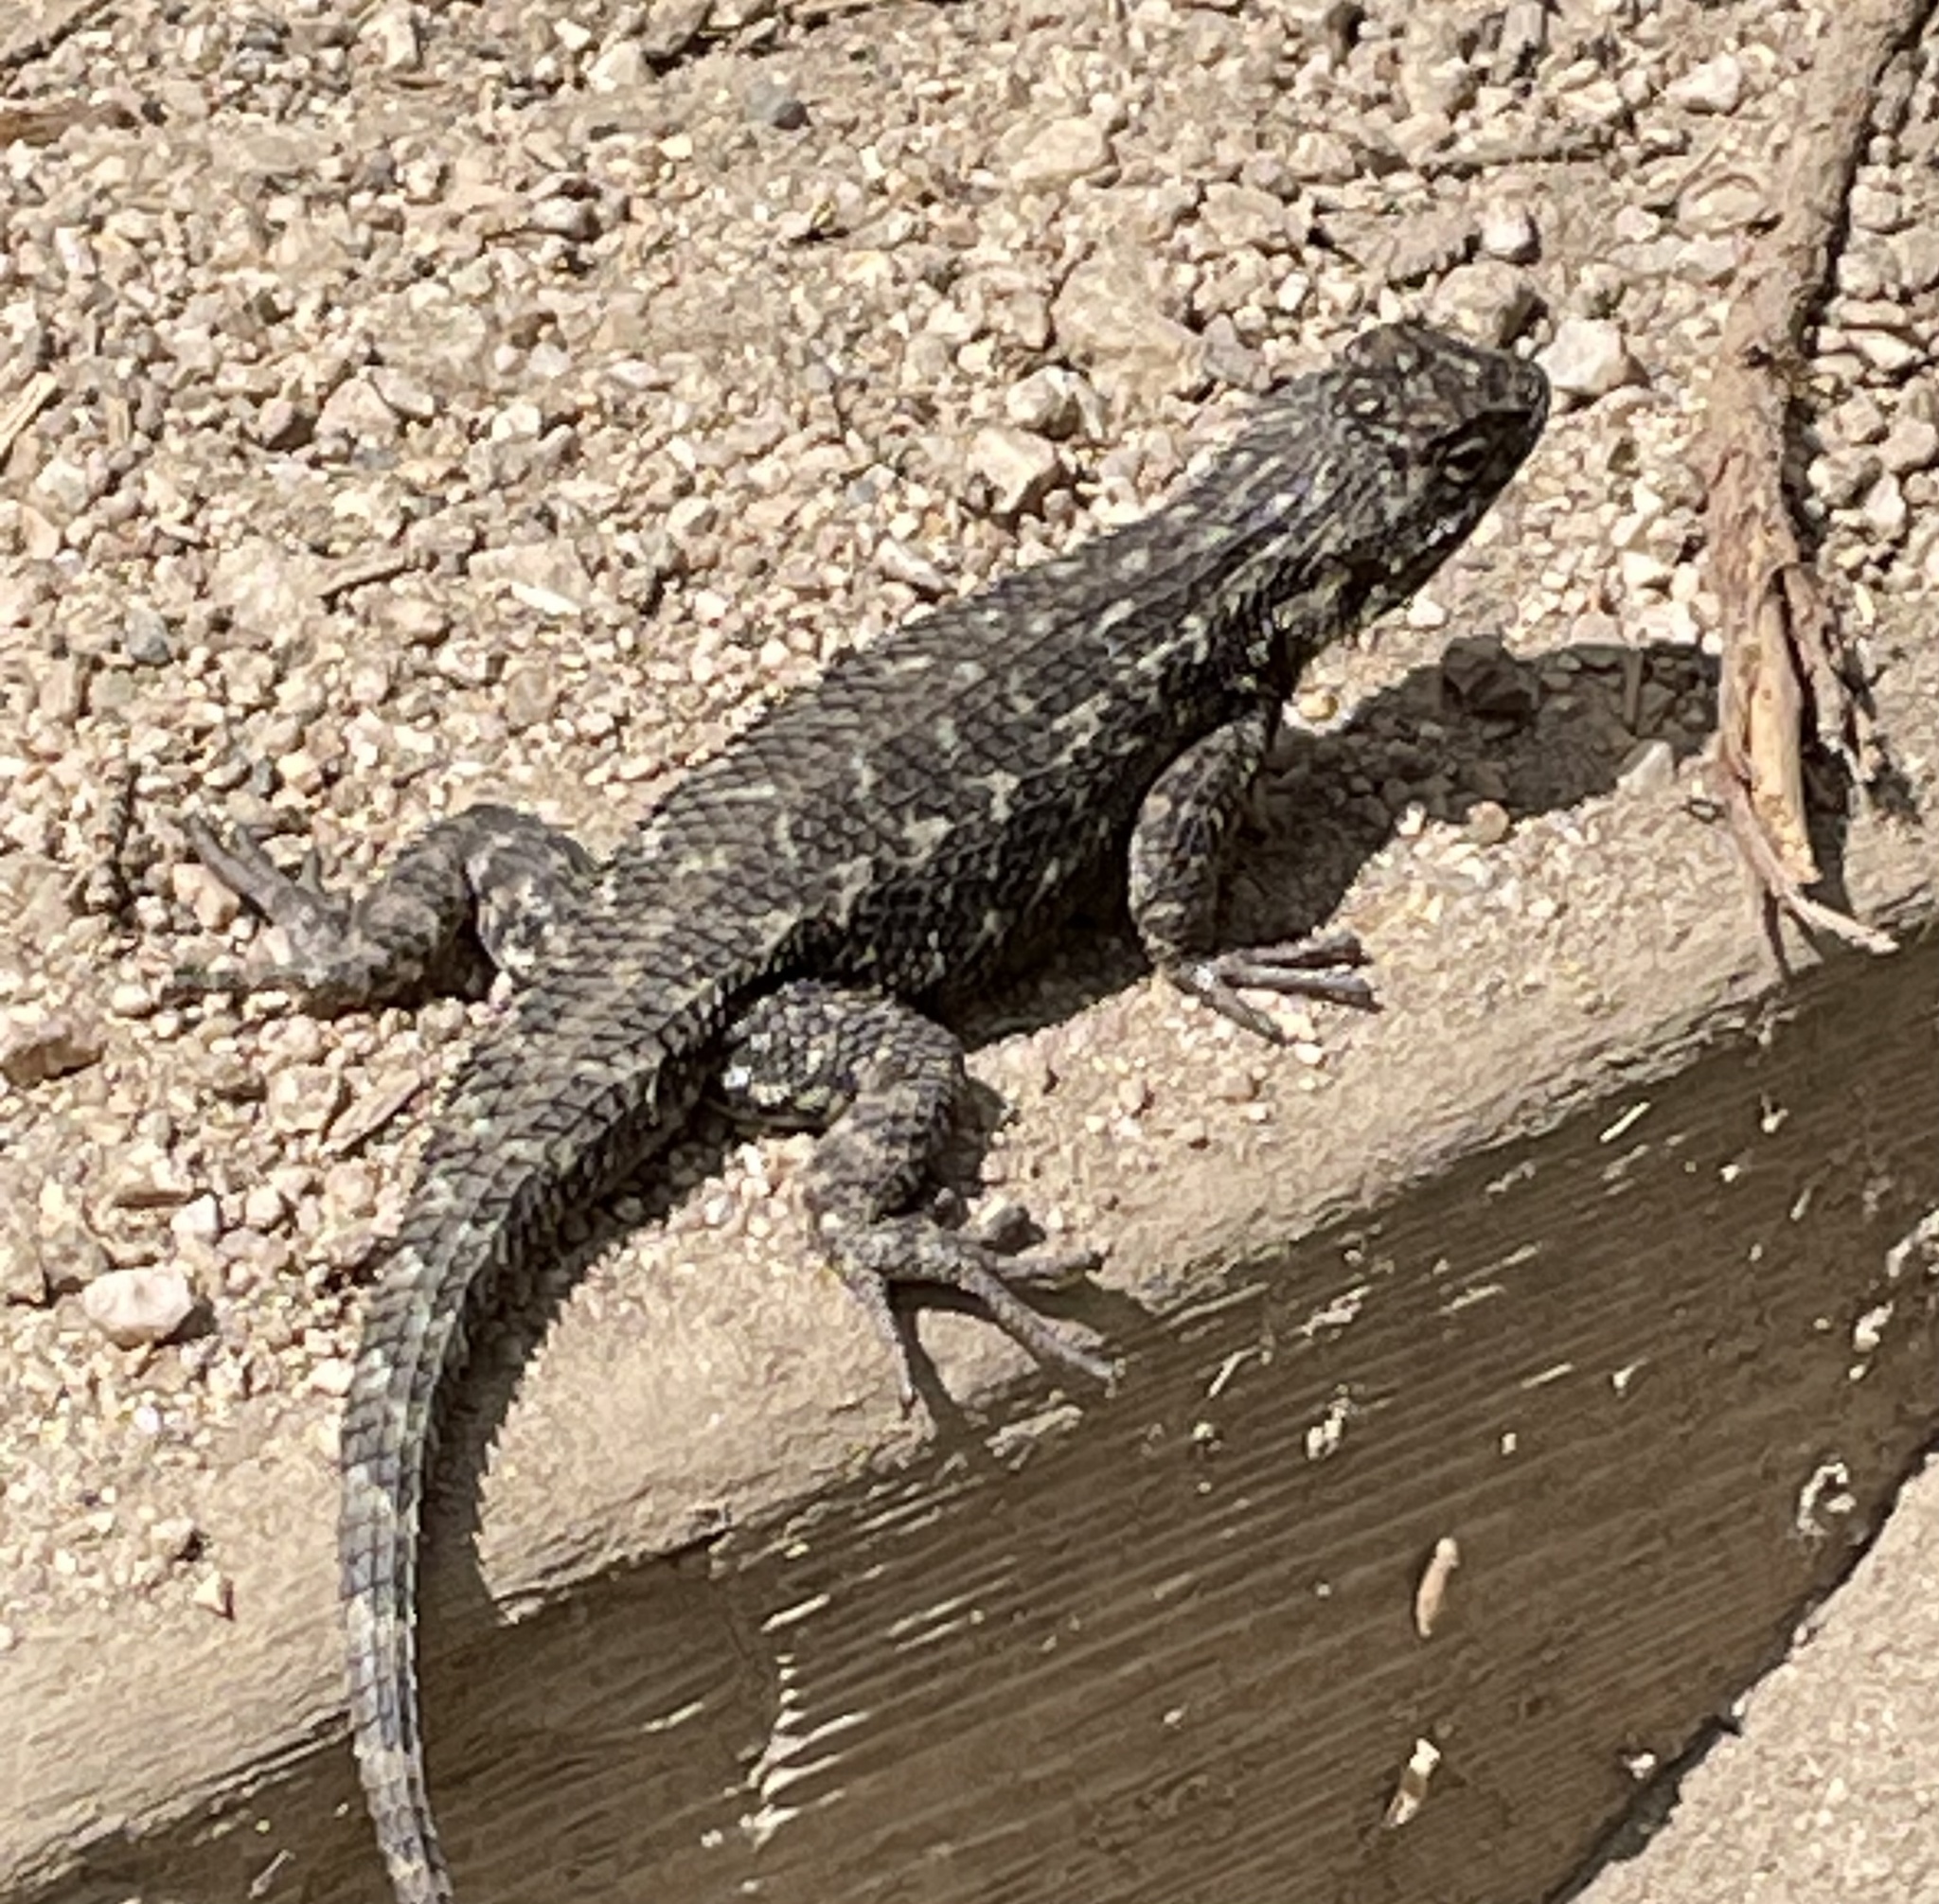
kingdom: Animalia
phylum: Chordata
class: Squamata
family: Phrynosomatidae
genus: Sceloporus
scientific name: Sceloporus occidentalis
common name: Western fence lizard
